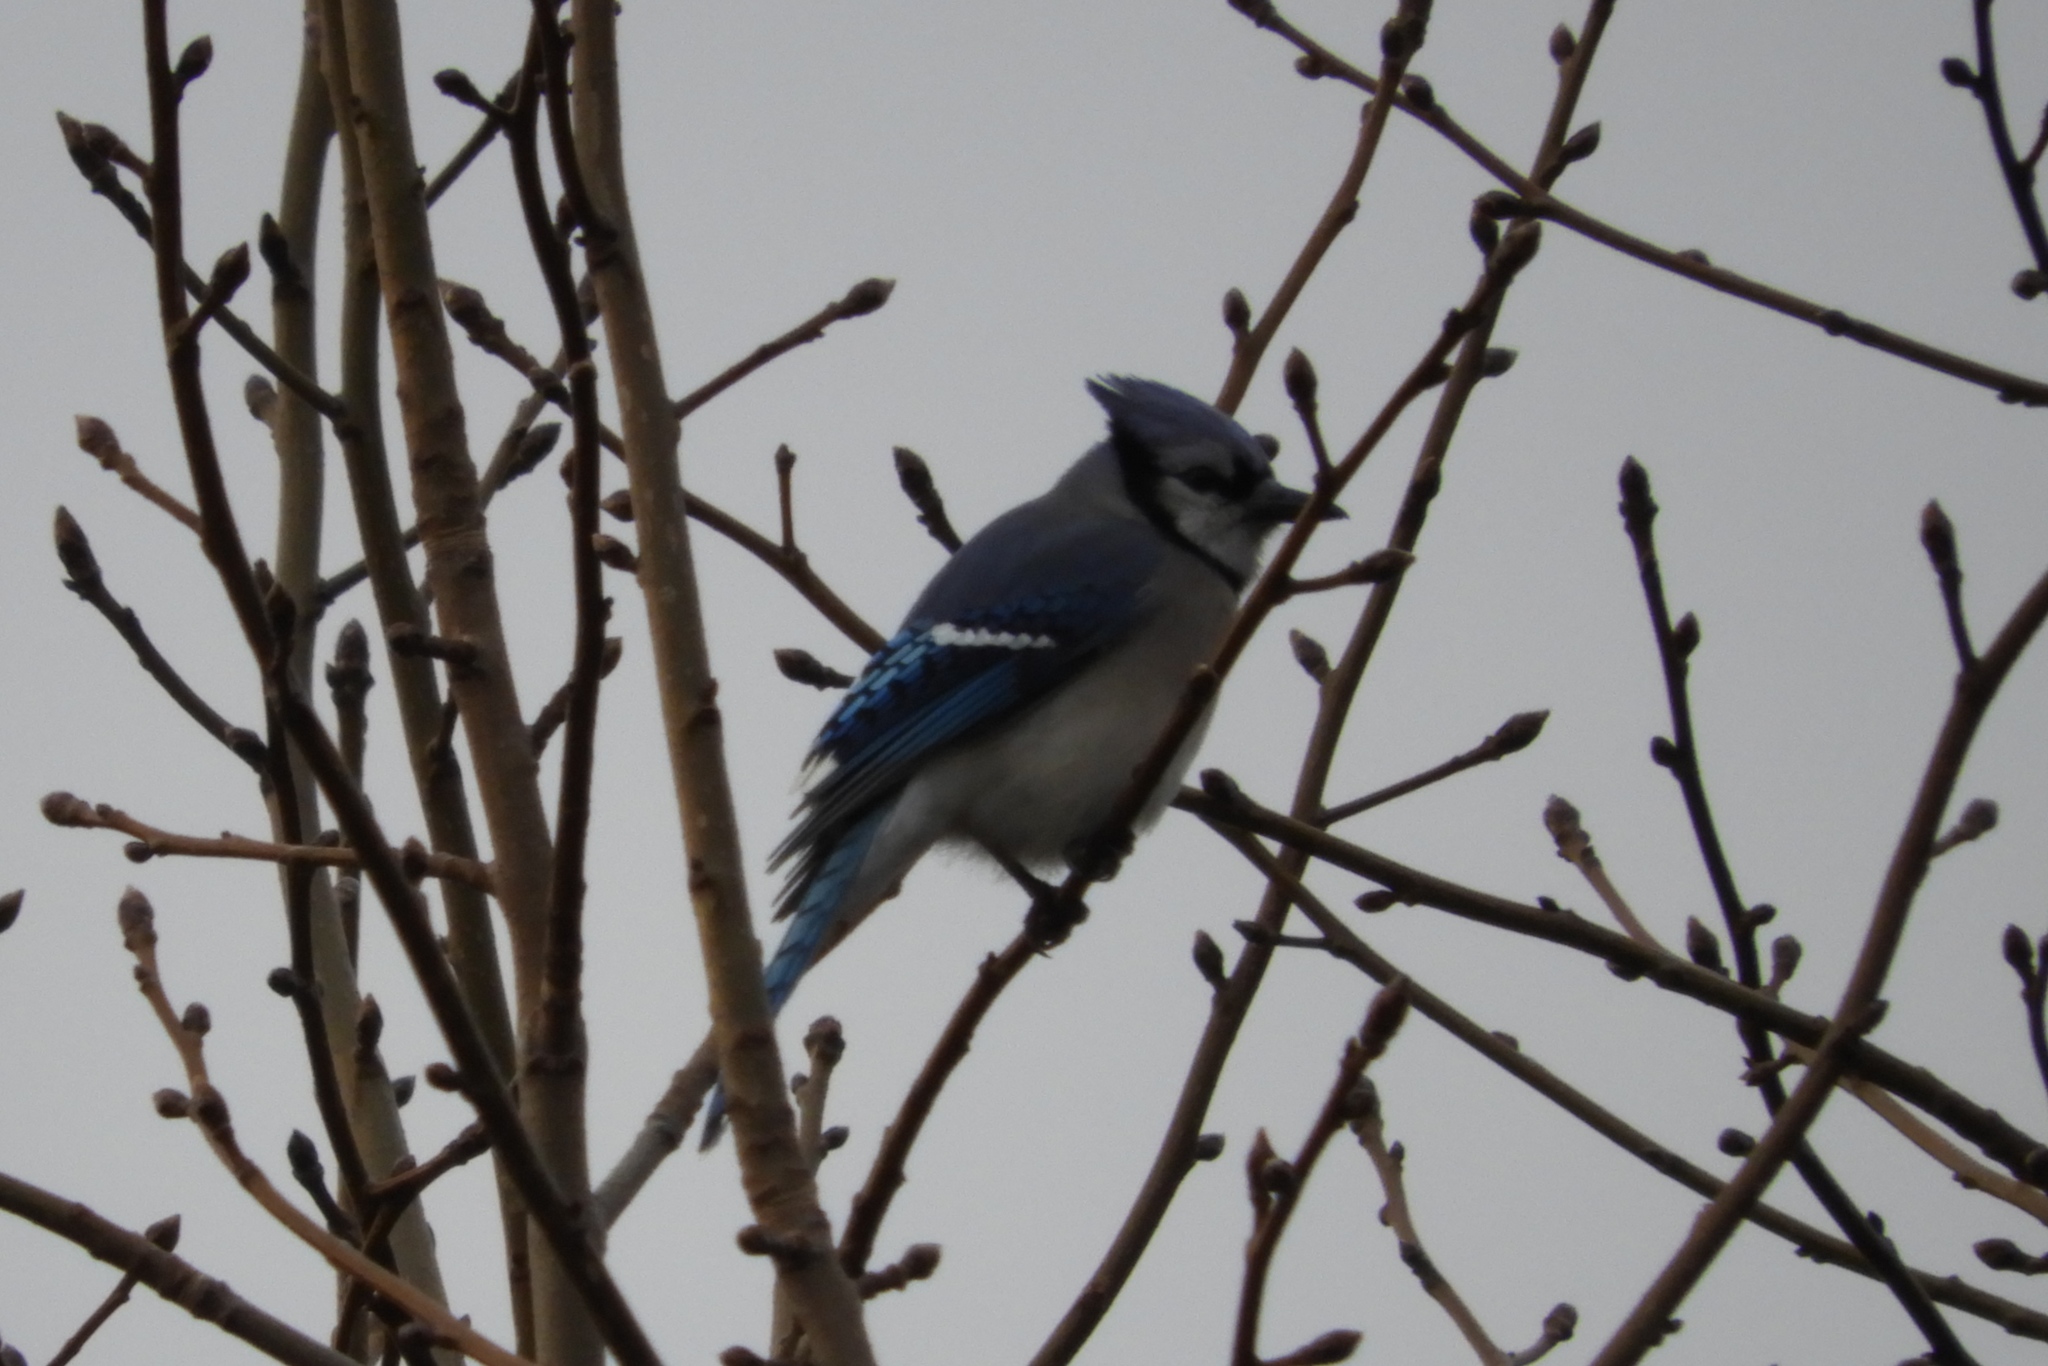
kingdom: Animalia
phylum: Chordata
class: Aves
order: Passeriformes
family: Corvidae
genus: Cyanocitta
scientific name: Cyanocitta cristata
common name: Blue jay
